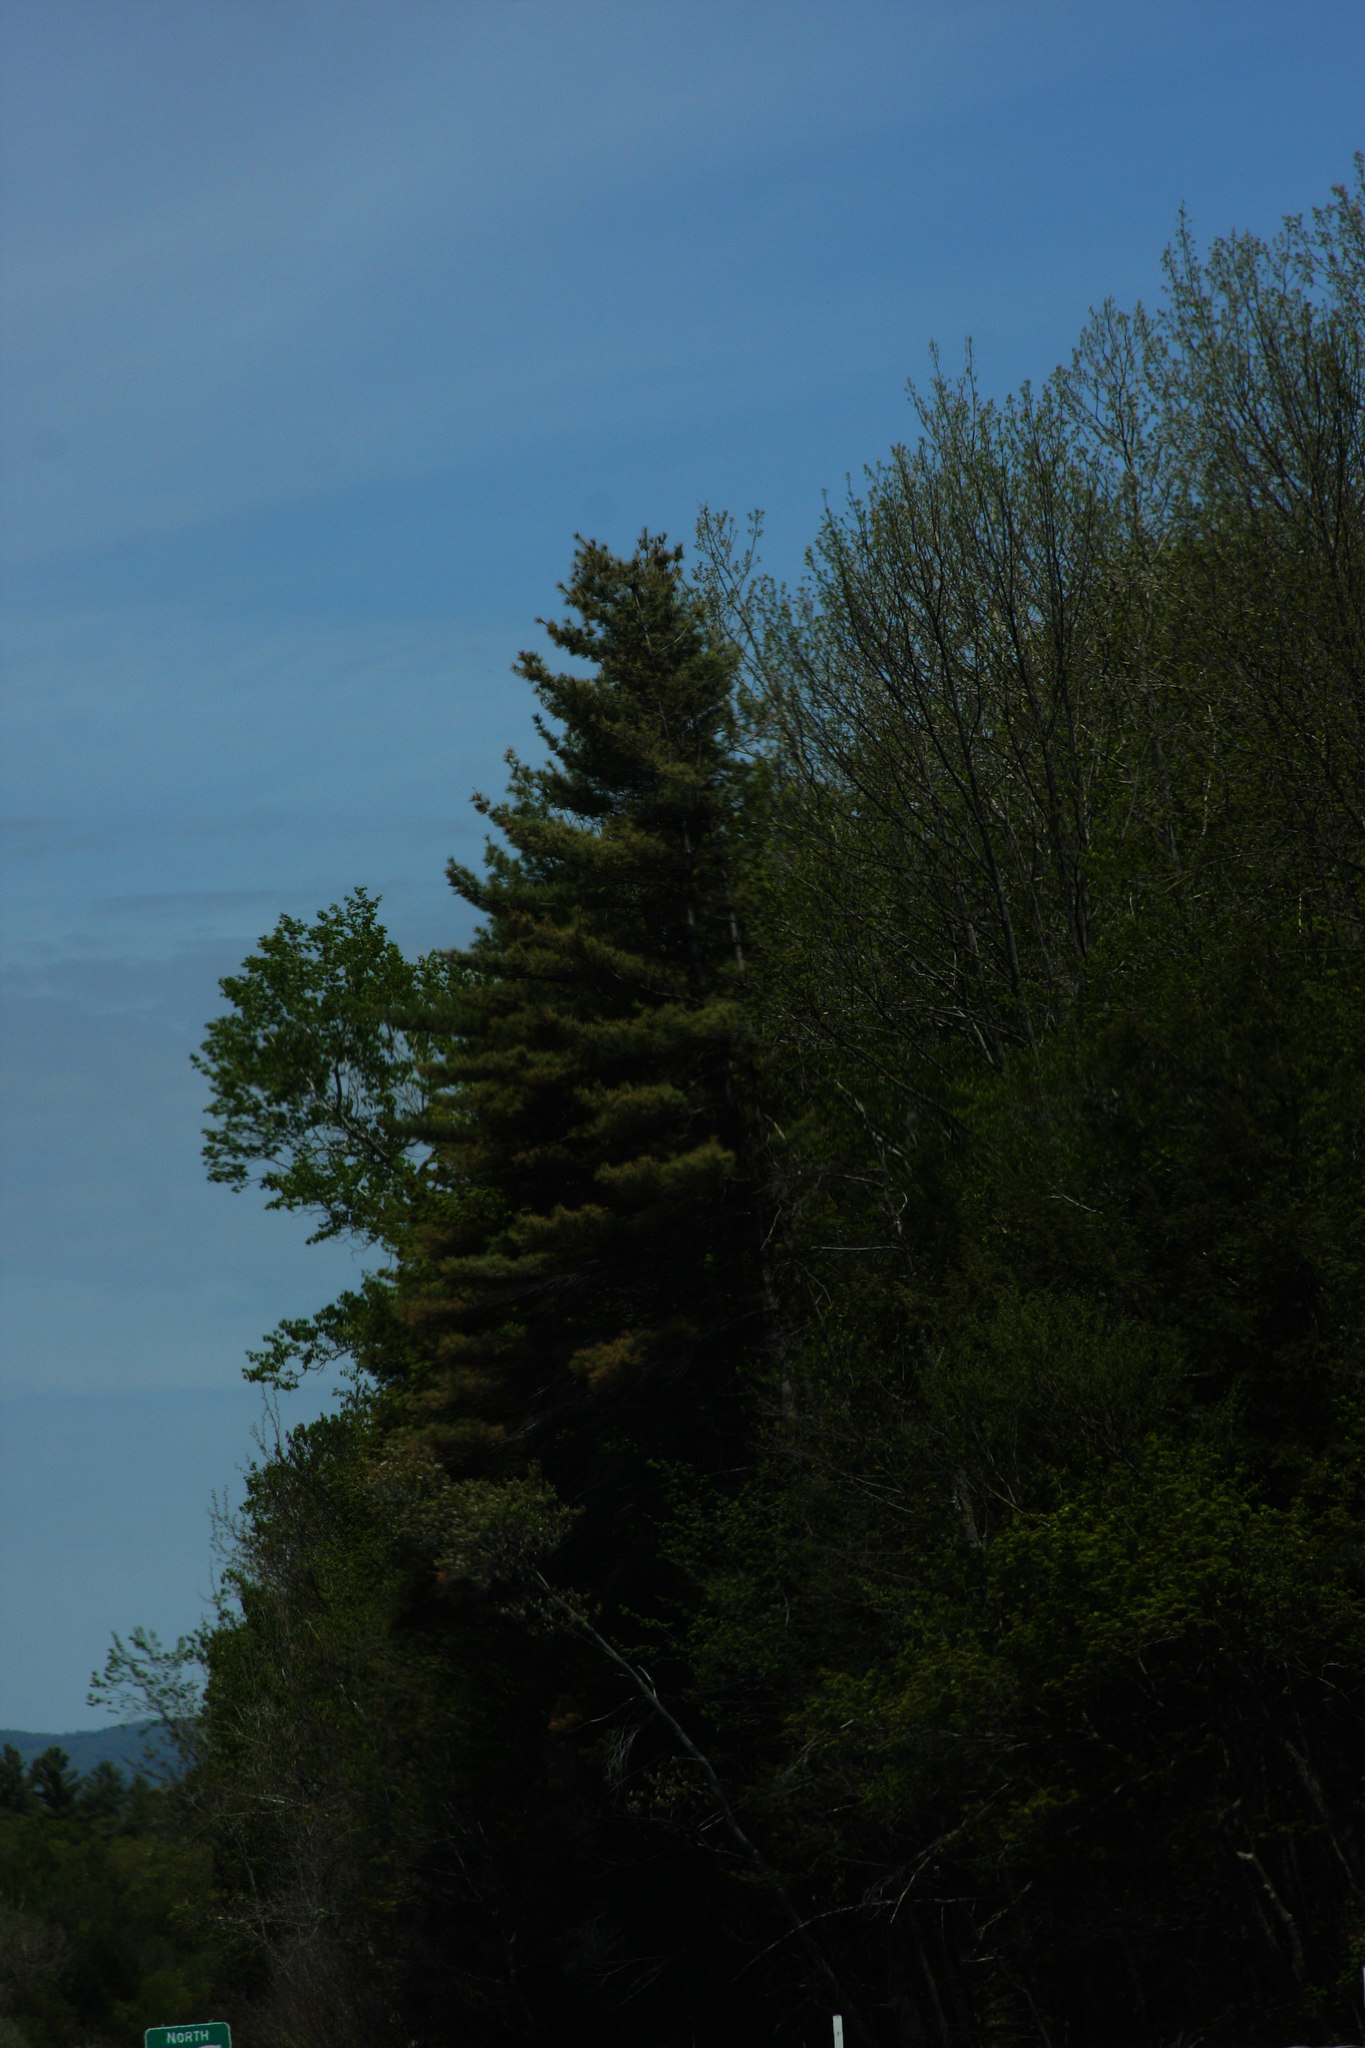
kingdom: Plantae
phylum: Tracheophyta
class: Pinopsida
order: Pinales
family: Pinaceae
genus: Pinus
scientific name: Pinus strobus
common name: Weymouth pine
